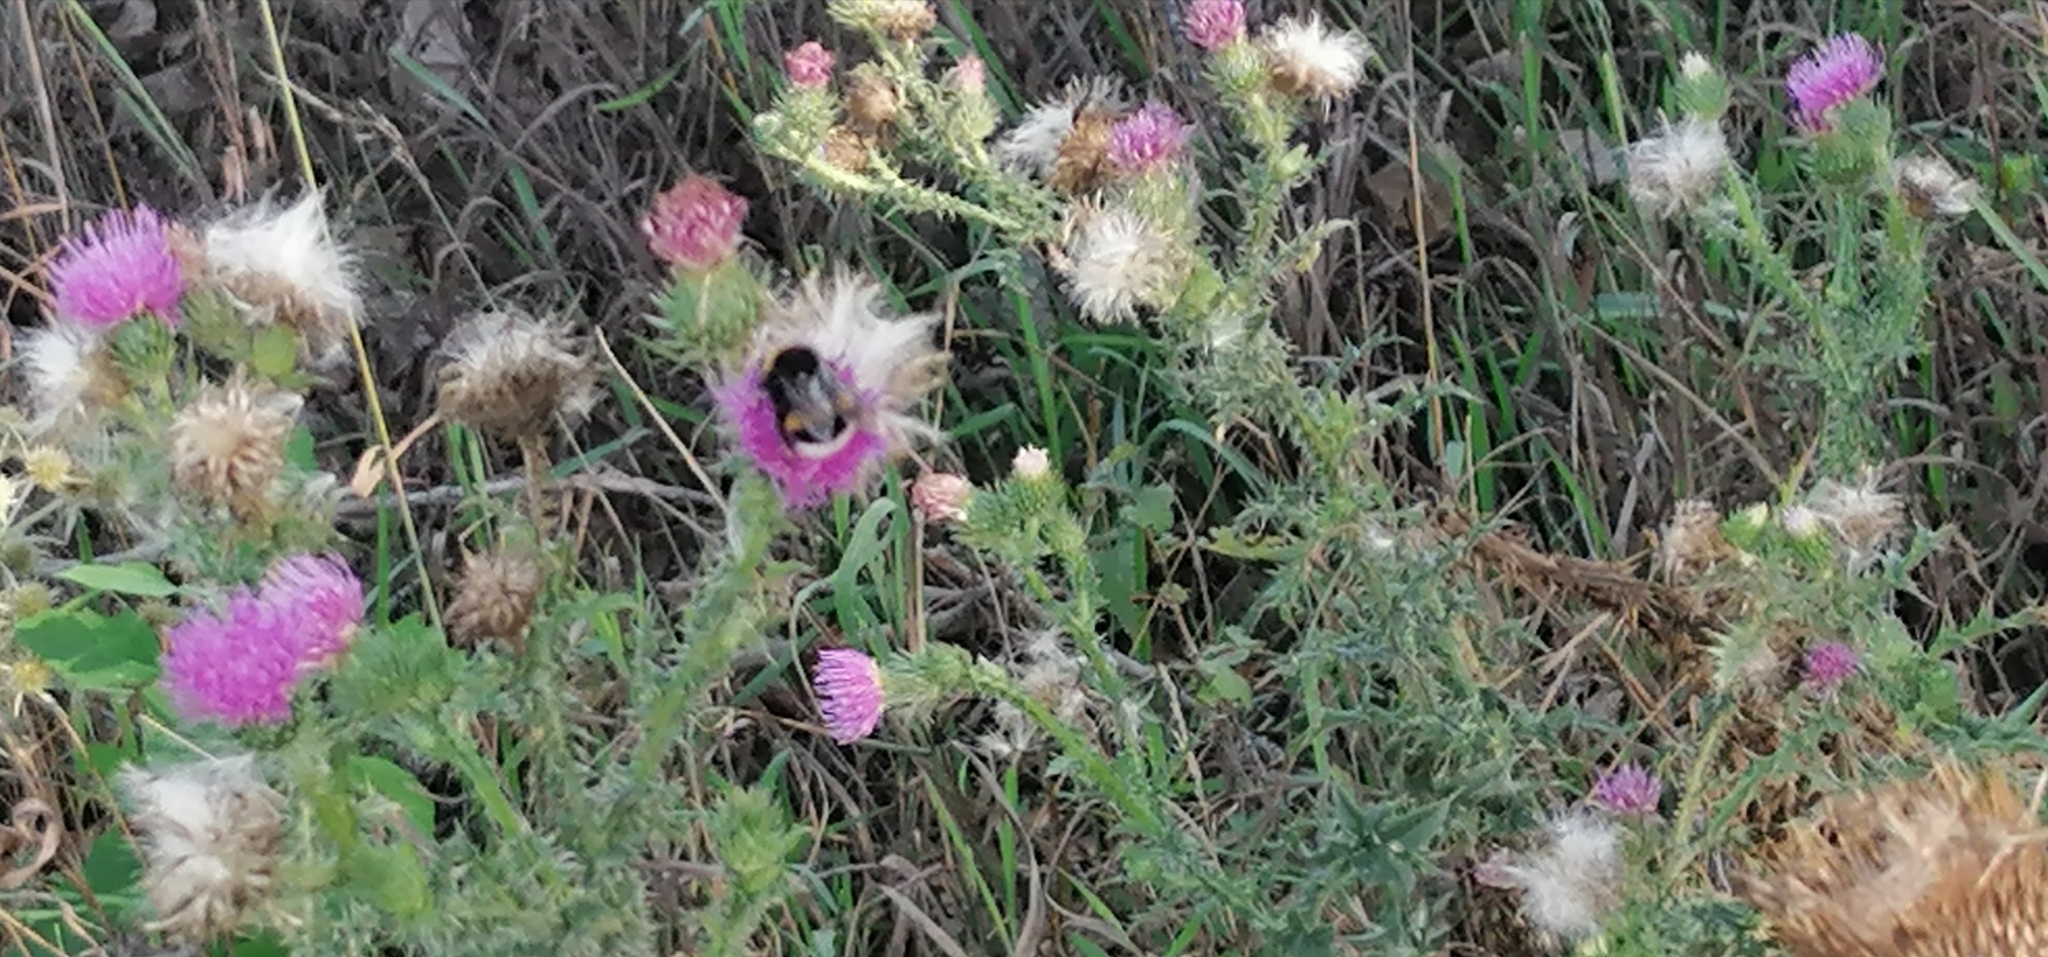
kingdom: Plantae
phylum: Tracheophyta
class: Magnoliopsida
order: Asterales
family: Asteraceae
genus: Carduus
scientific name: Carduus acanthoides
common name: Plumeless thistle
